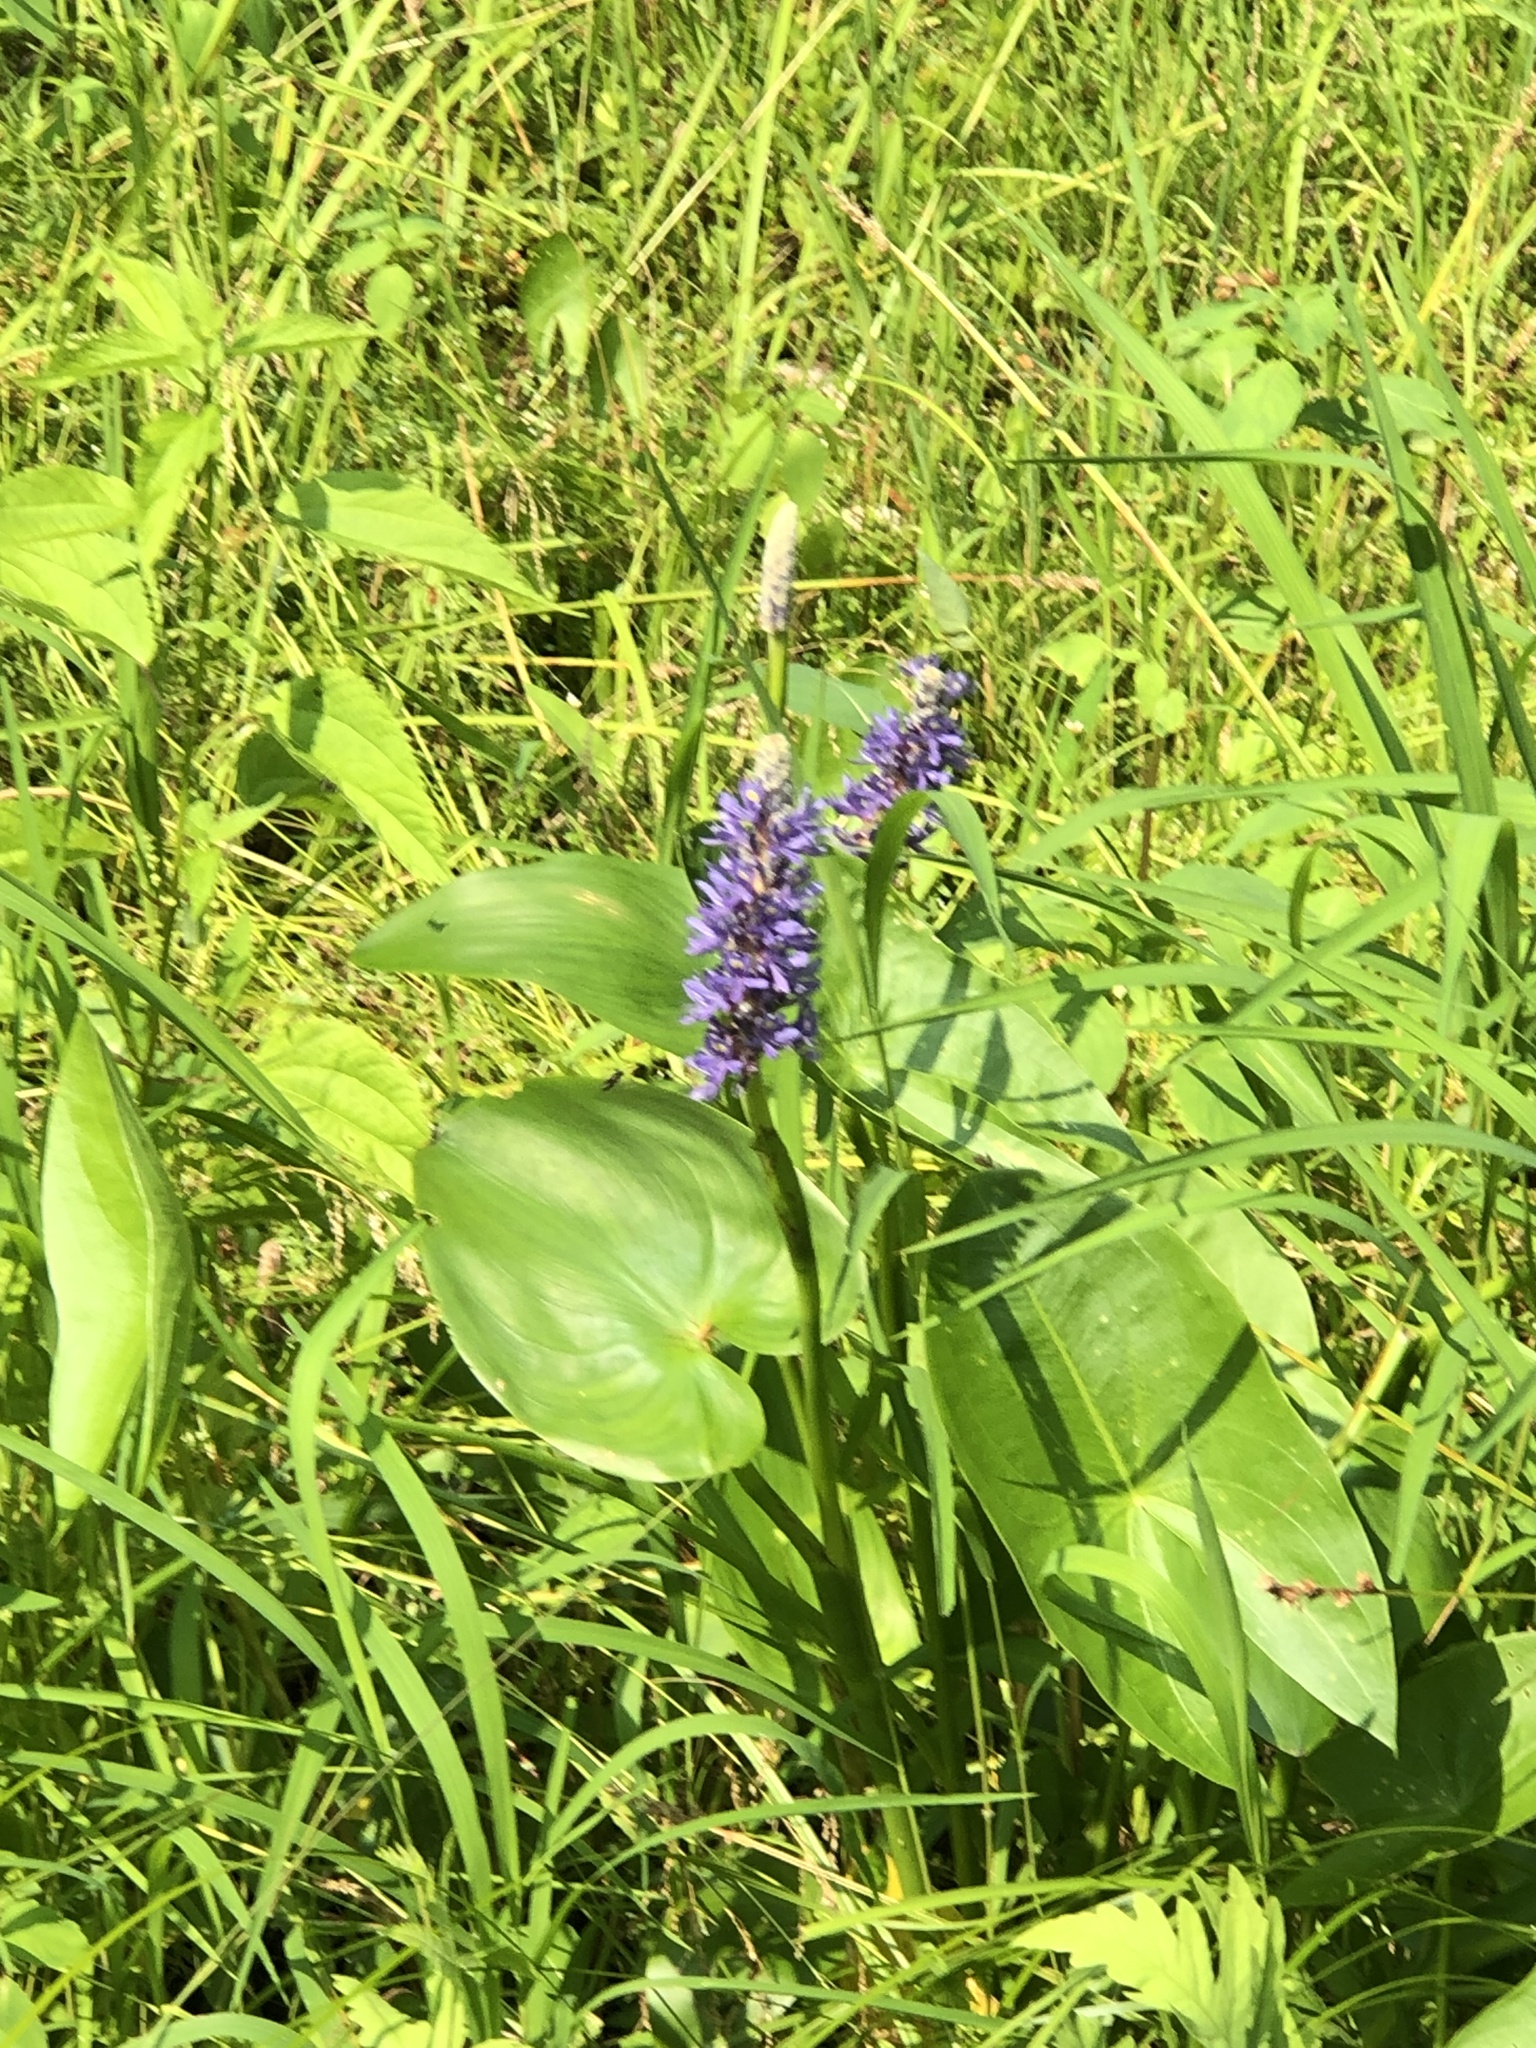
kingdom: Plantae
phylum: Tracheophyta
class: Liliopsida
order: Commelinales
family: Pontederiaceae
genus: Pontederia
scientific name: Pontederia cordata
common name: Pickerelweed
